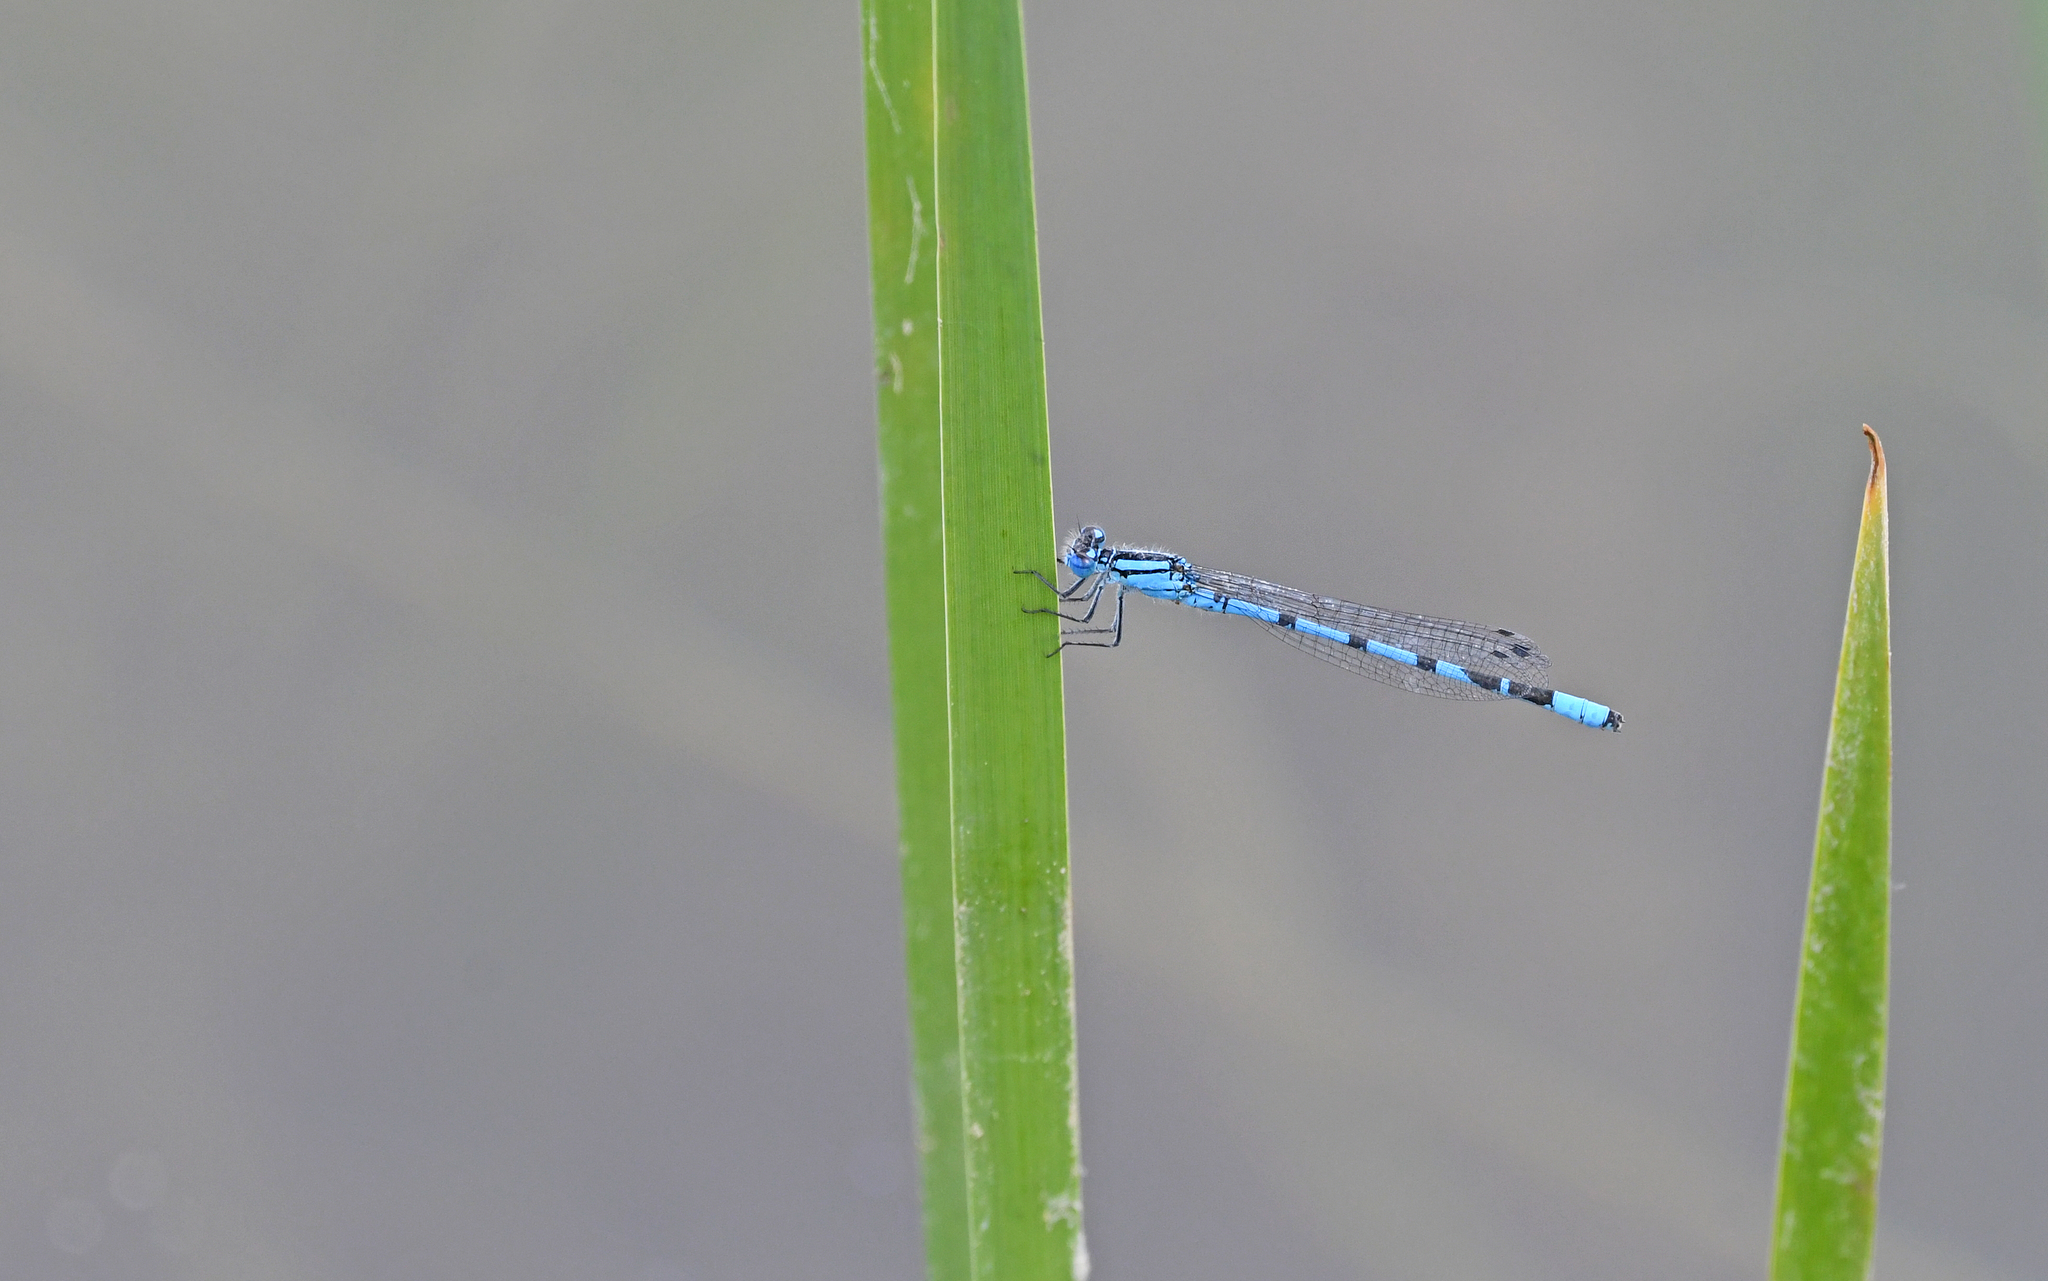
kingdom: Animalia
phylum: Arthropoda
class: Insecta
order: Odonata
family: Coenagrionidae
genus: Enallagma
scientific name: Enallagma cyathigerum
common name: Common blue damselfly
